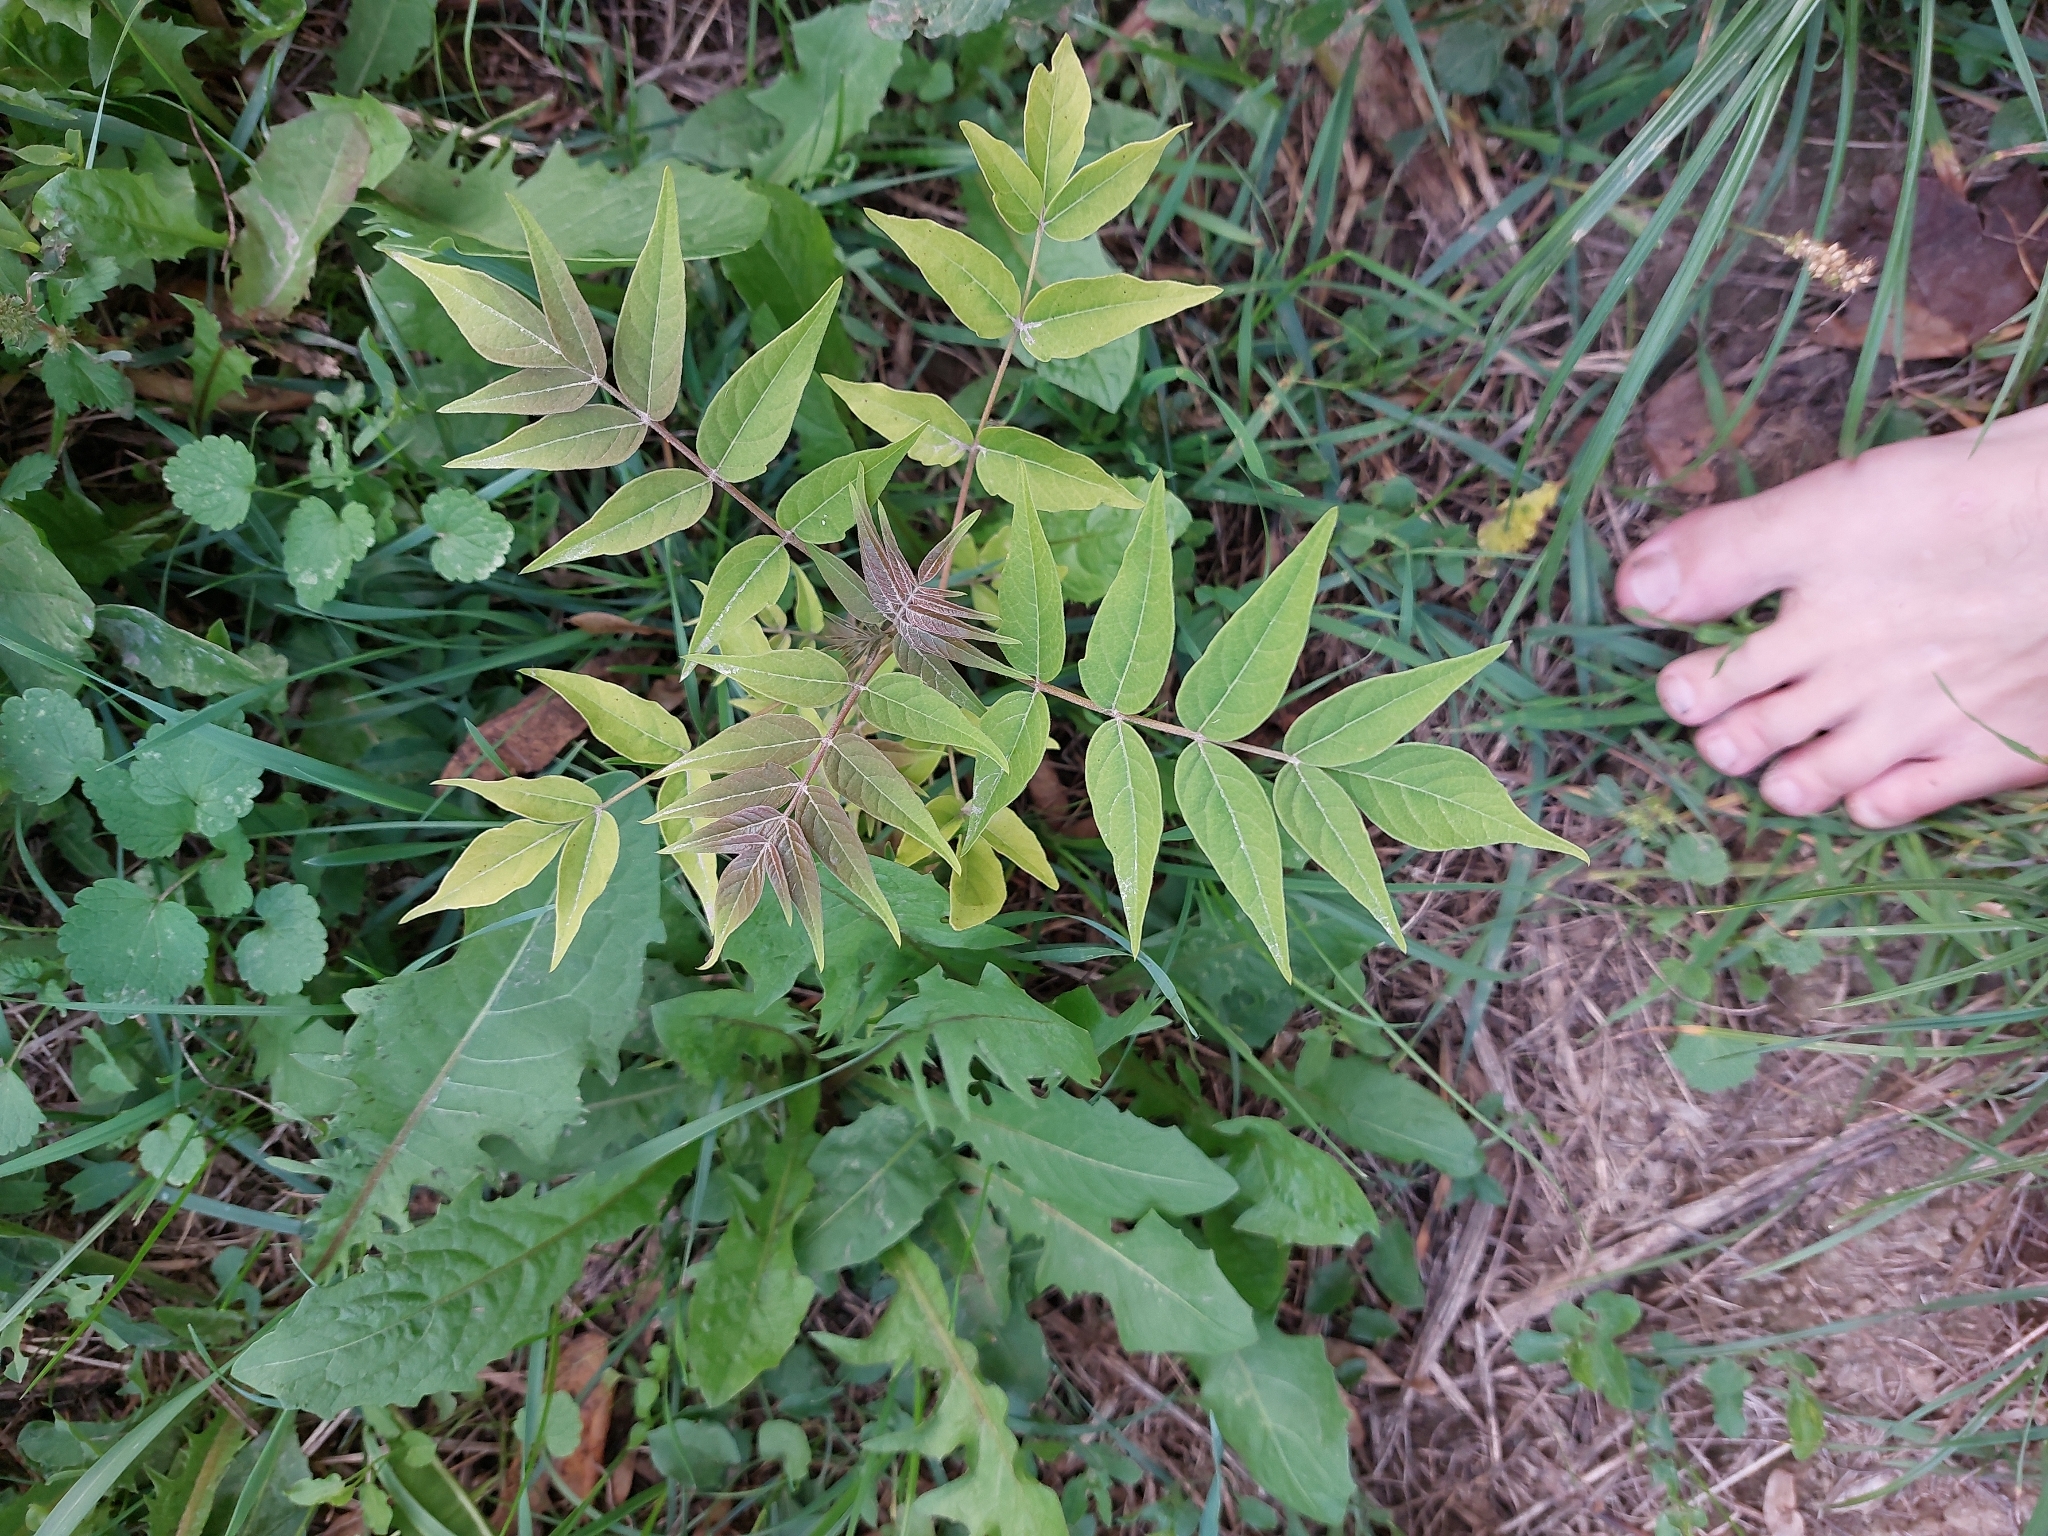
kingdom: Plantae
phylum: Tracheophyta
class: Magnoliopsida
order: Sapindales
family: Simaroubaceae
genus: Ailanthus
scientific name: Ailanthus altissima
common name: Tree-of-heaven
